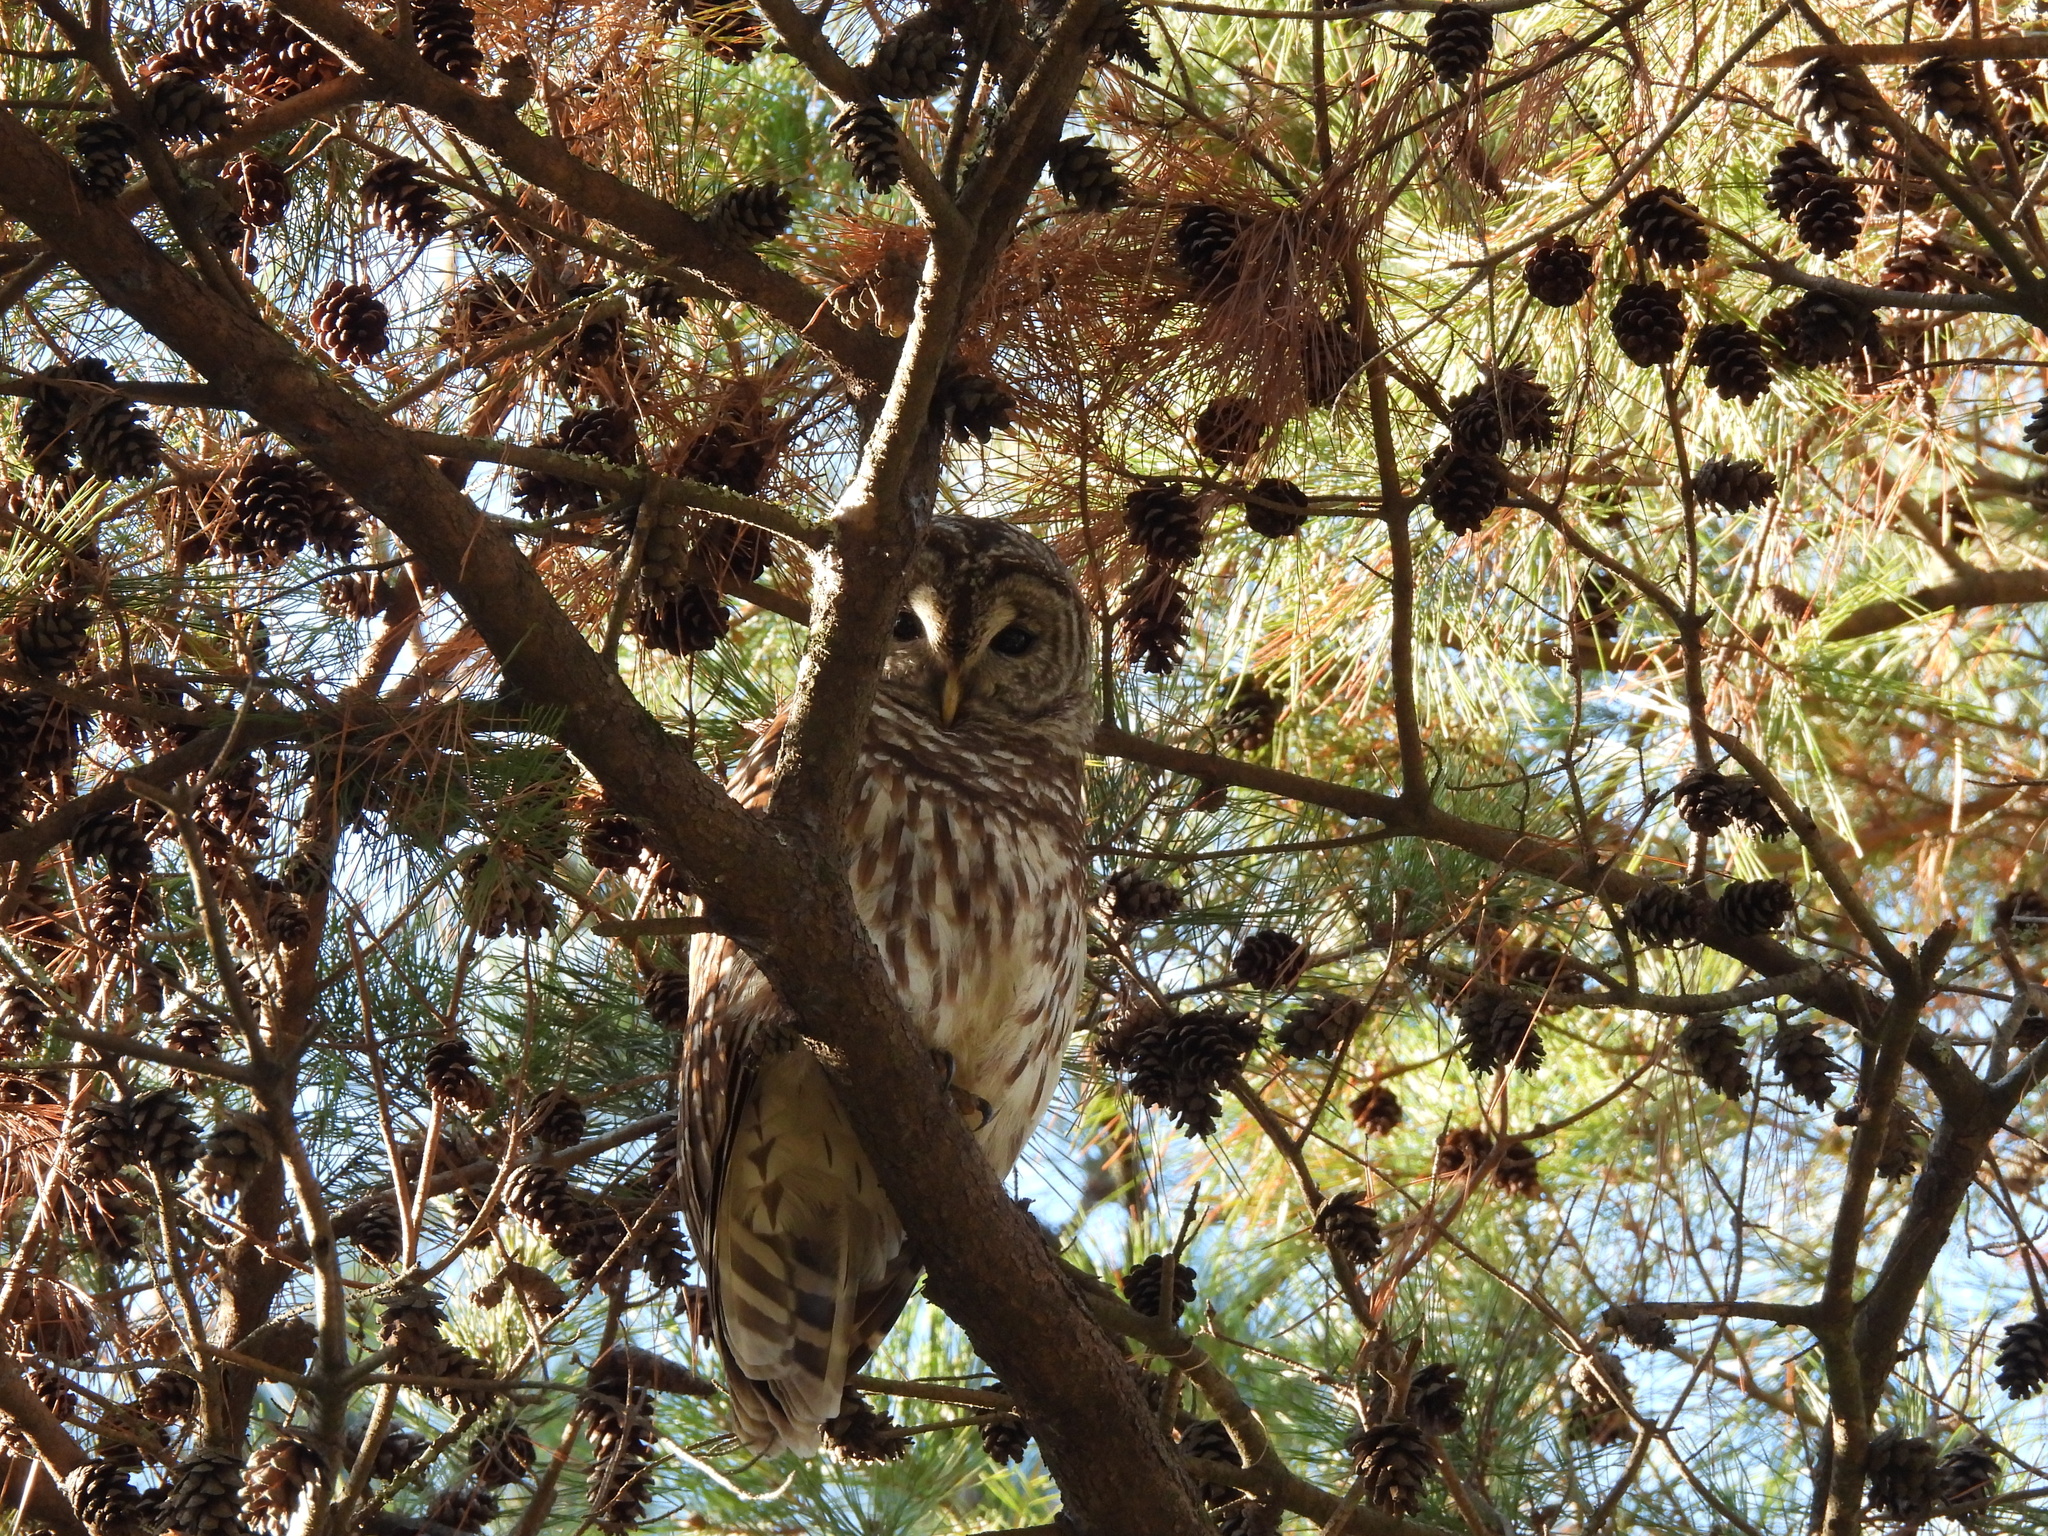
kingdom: Animalia
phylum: Chordata
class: Aves
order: Strigiformes
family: Strigidae
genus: Strix
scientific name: Strix varia
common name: Barred owl
